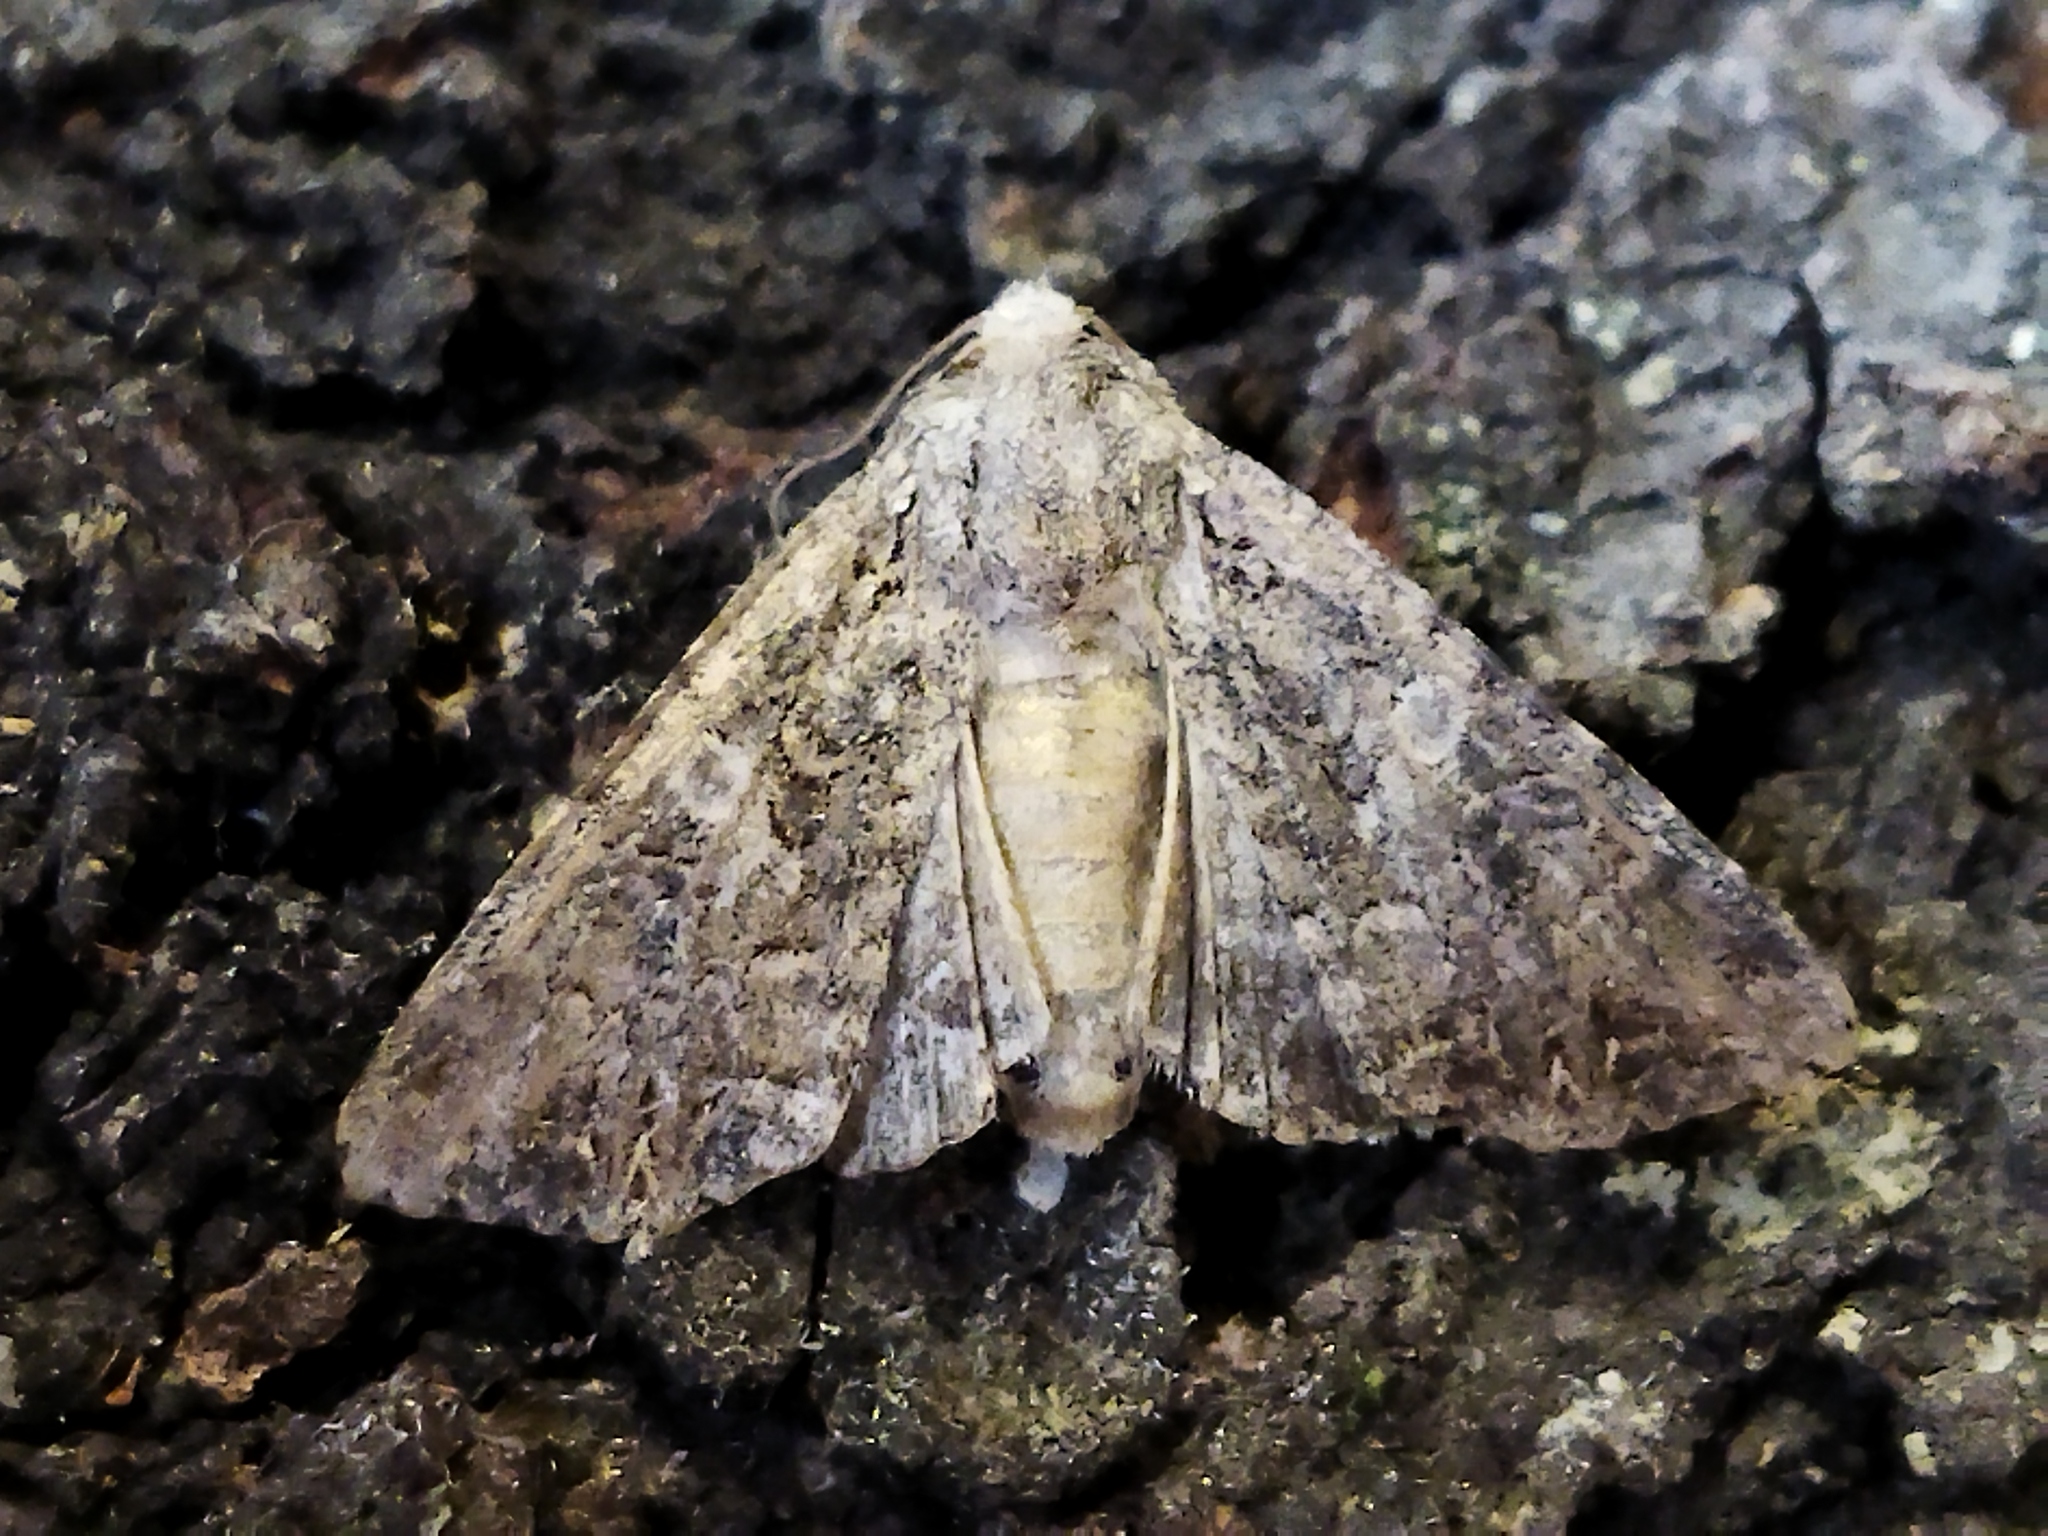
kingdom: Animalia
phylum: Arthropoda
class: Insecta
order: Lepidoptera
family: Noctuidae
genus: Anarta
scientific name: Anarta trifolii
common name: Clover cutworm moth
